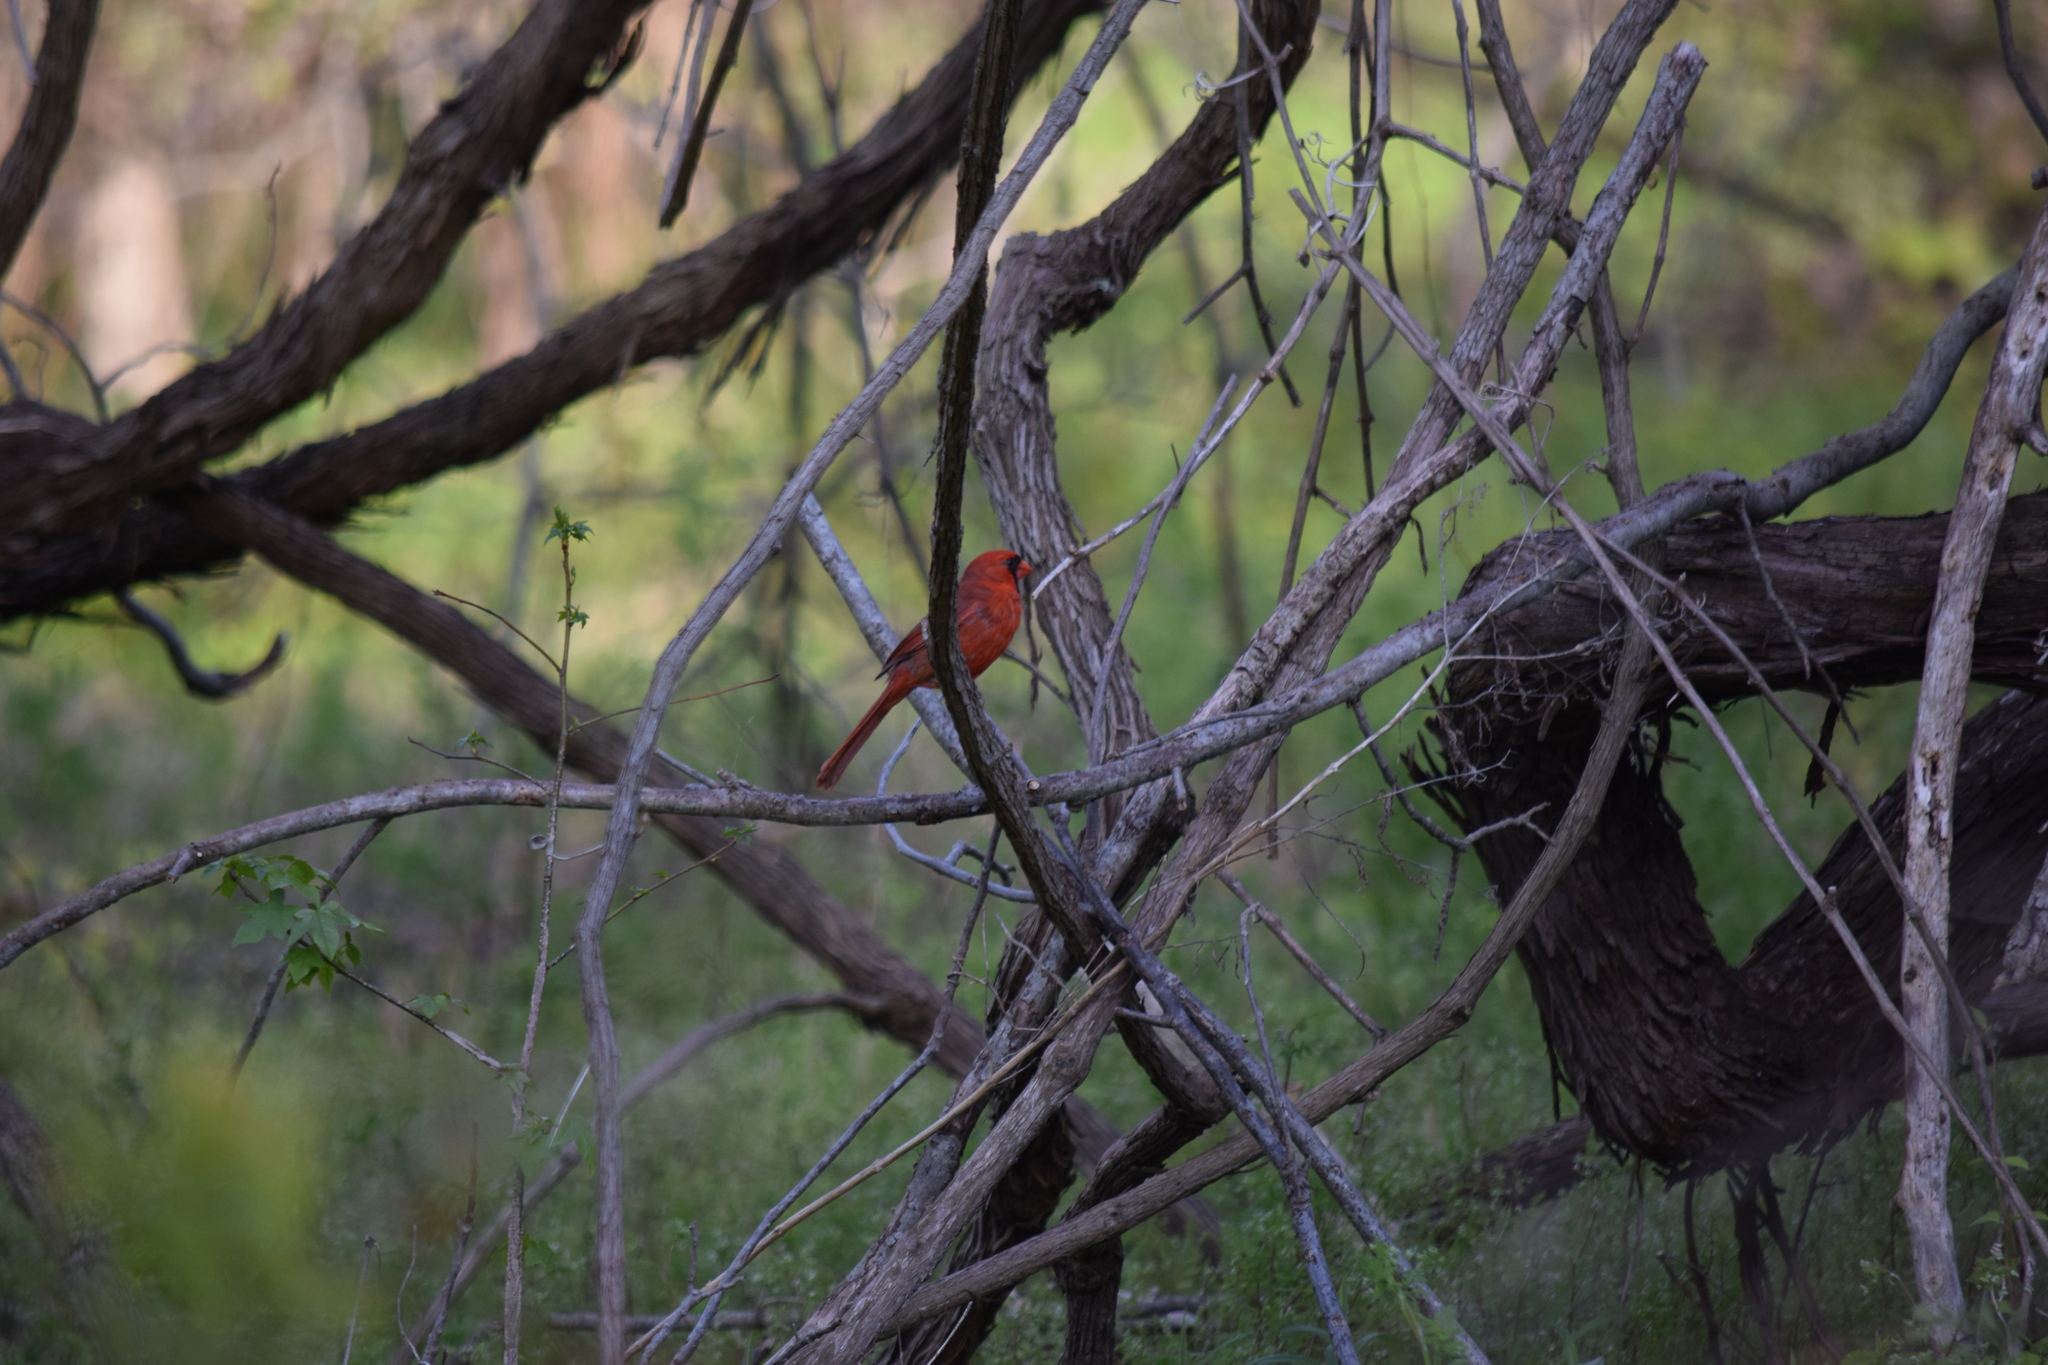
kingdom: Animalia
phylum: Chordata
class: Aves
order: Passeriformes
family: Cardinalidae
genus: Cardinalis
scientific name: Cardinalis cardinalis
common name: Northern cardinal
